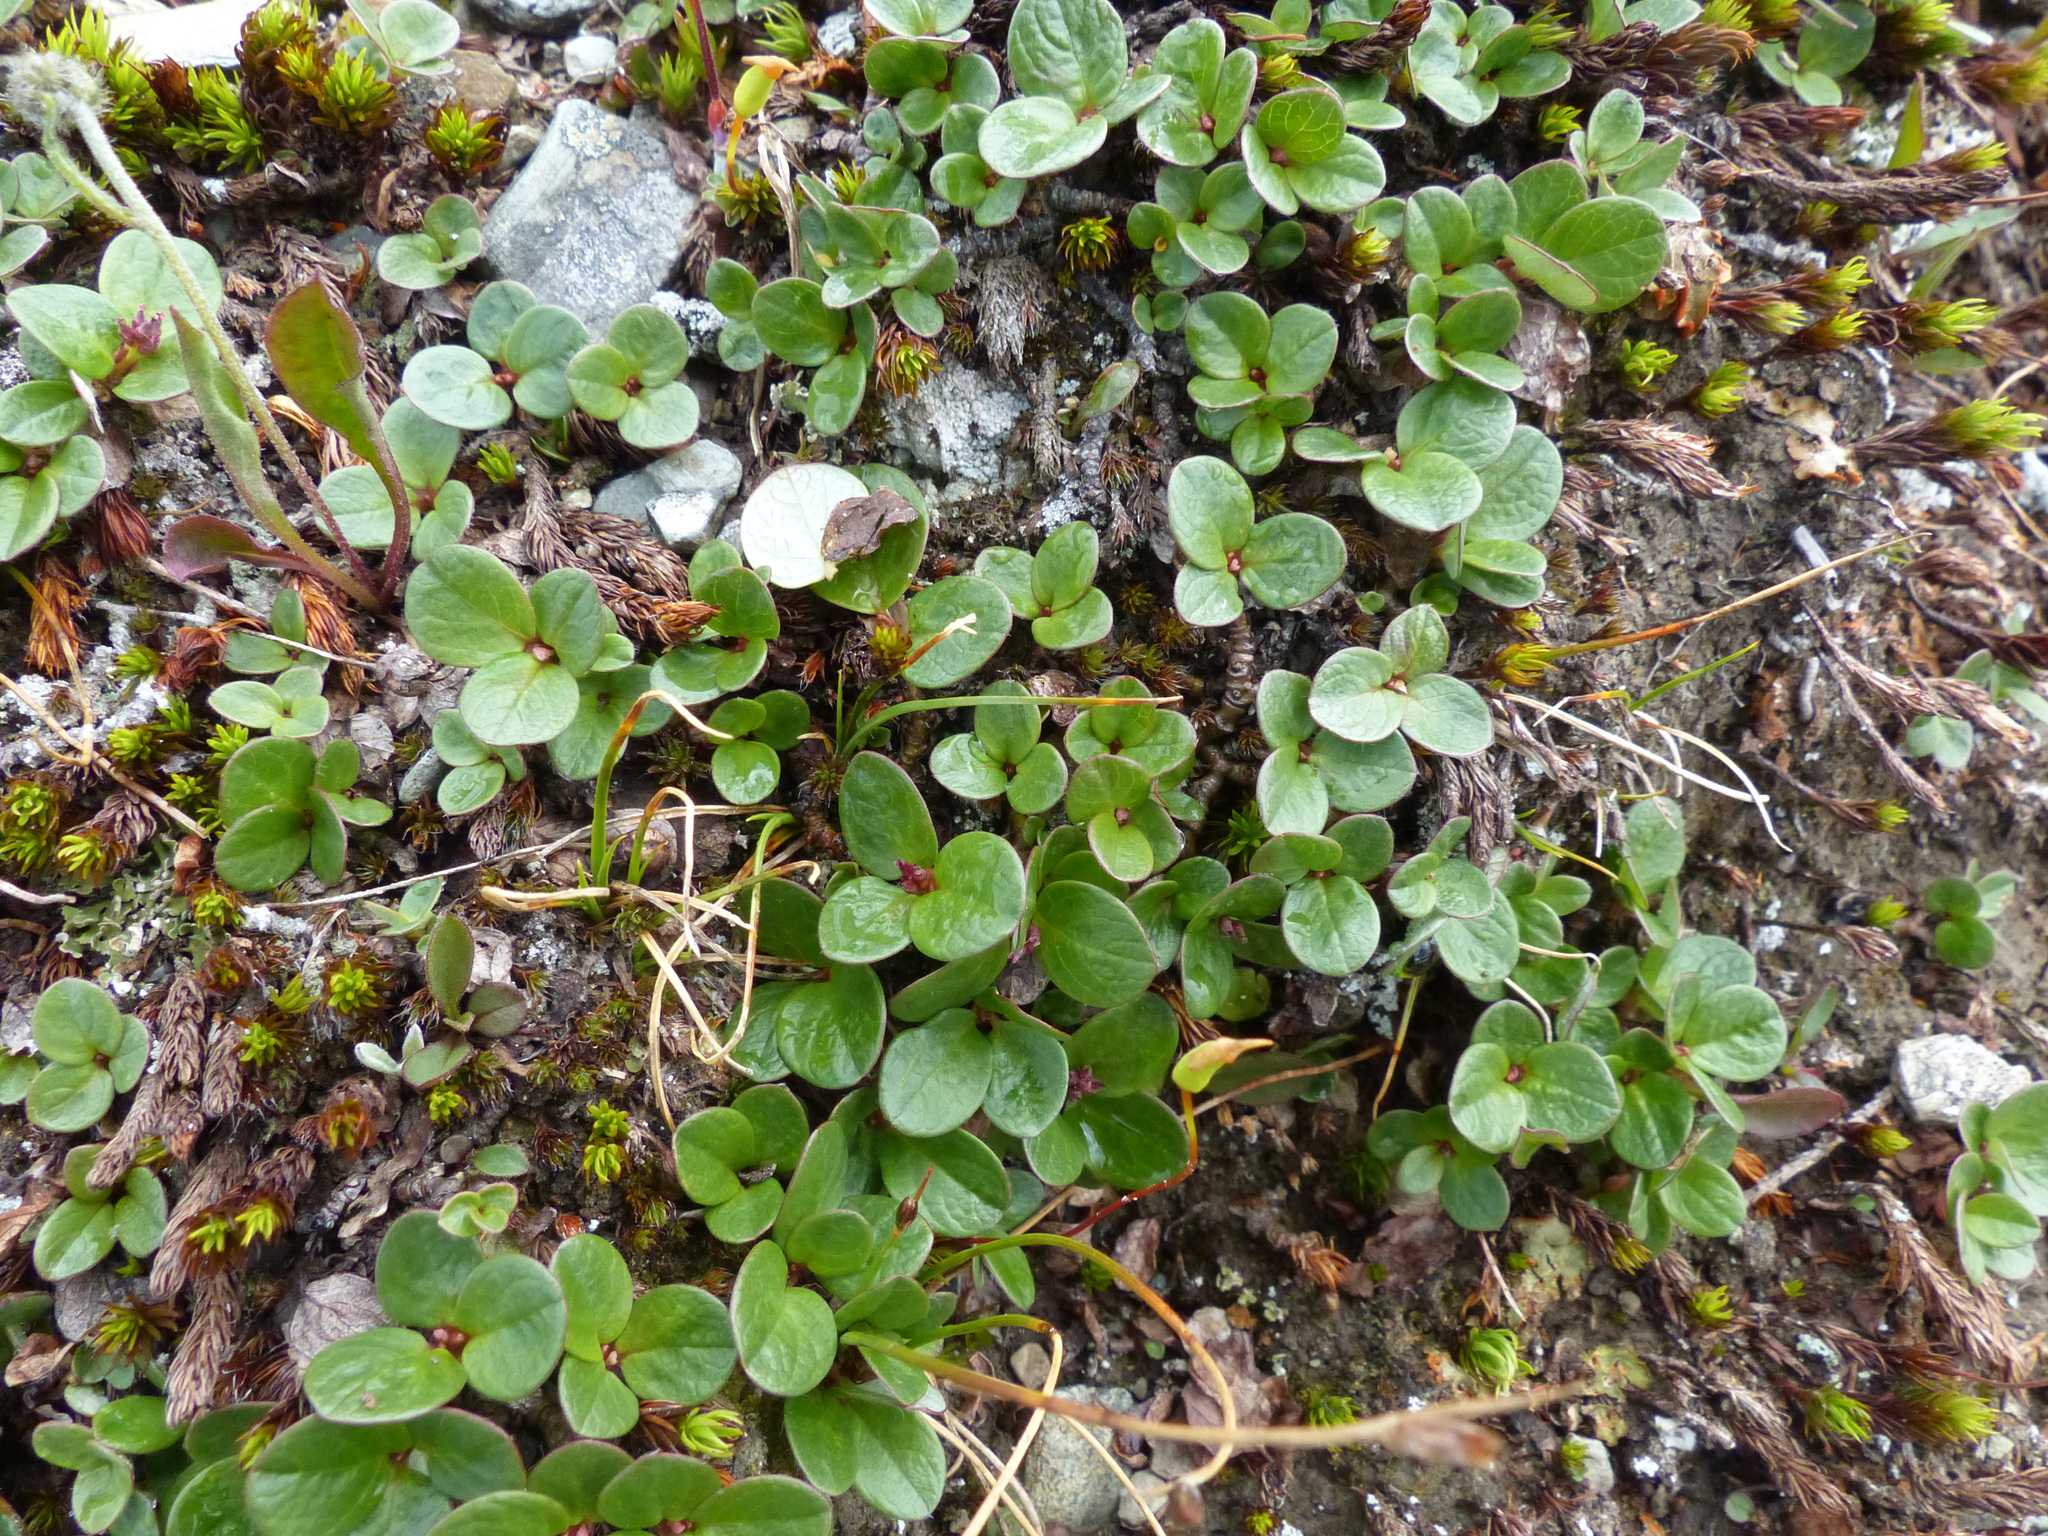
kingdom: Plantae
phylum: Tracheophyta
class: Magnoliopsida
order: Malpighiales
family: Salicaceae
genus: Salix
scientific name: Salix nivalis
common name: Dwarf snow willow
